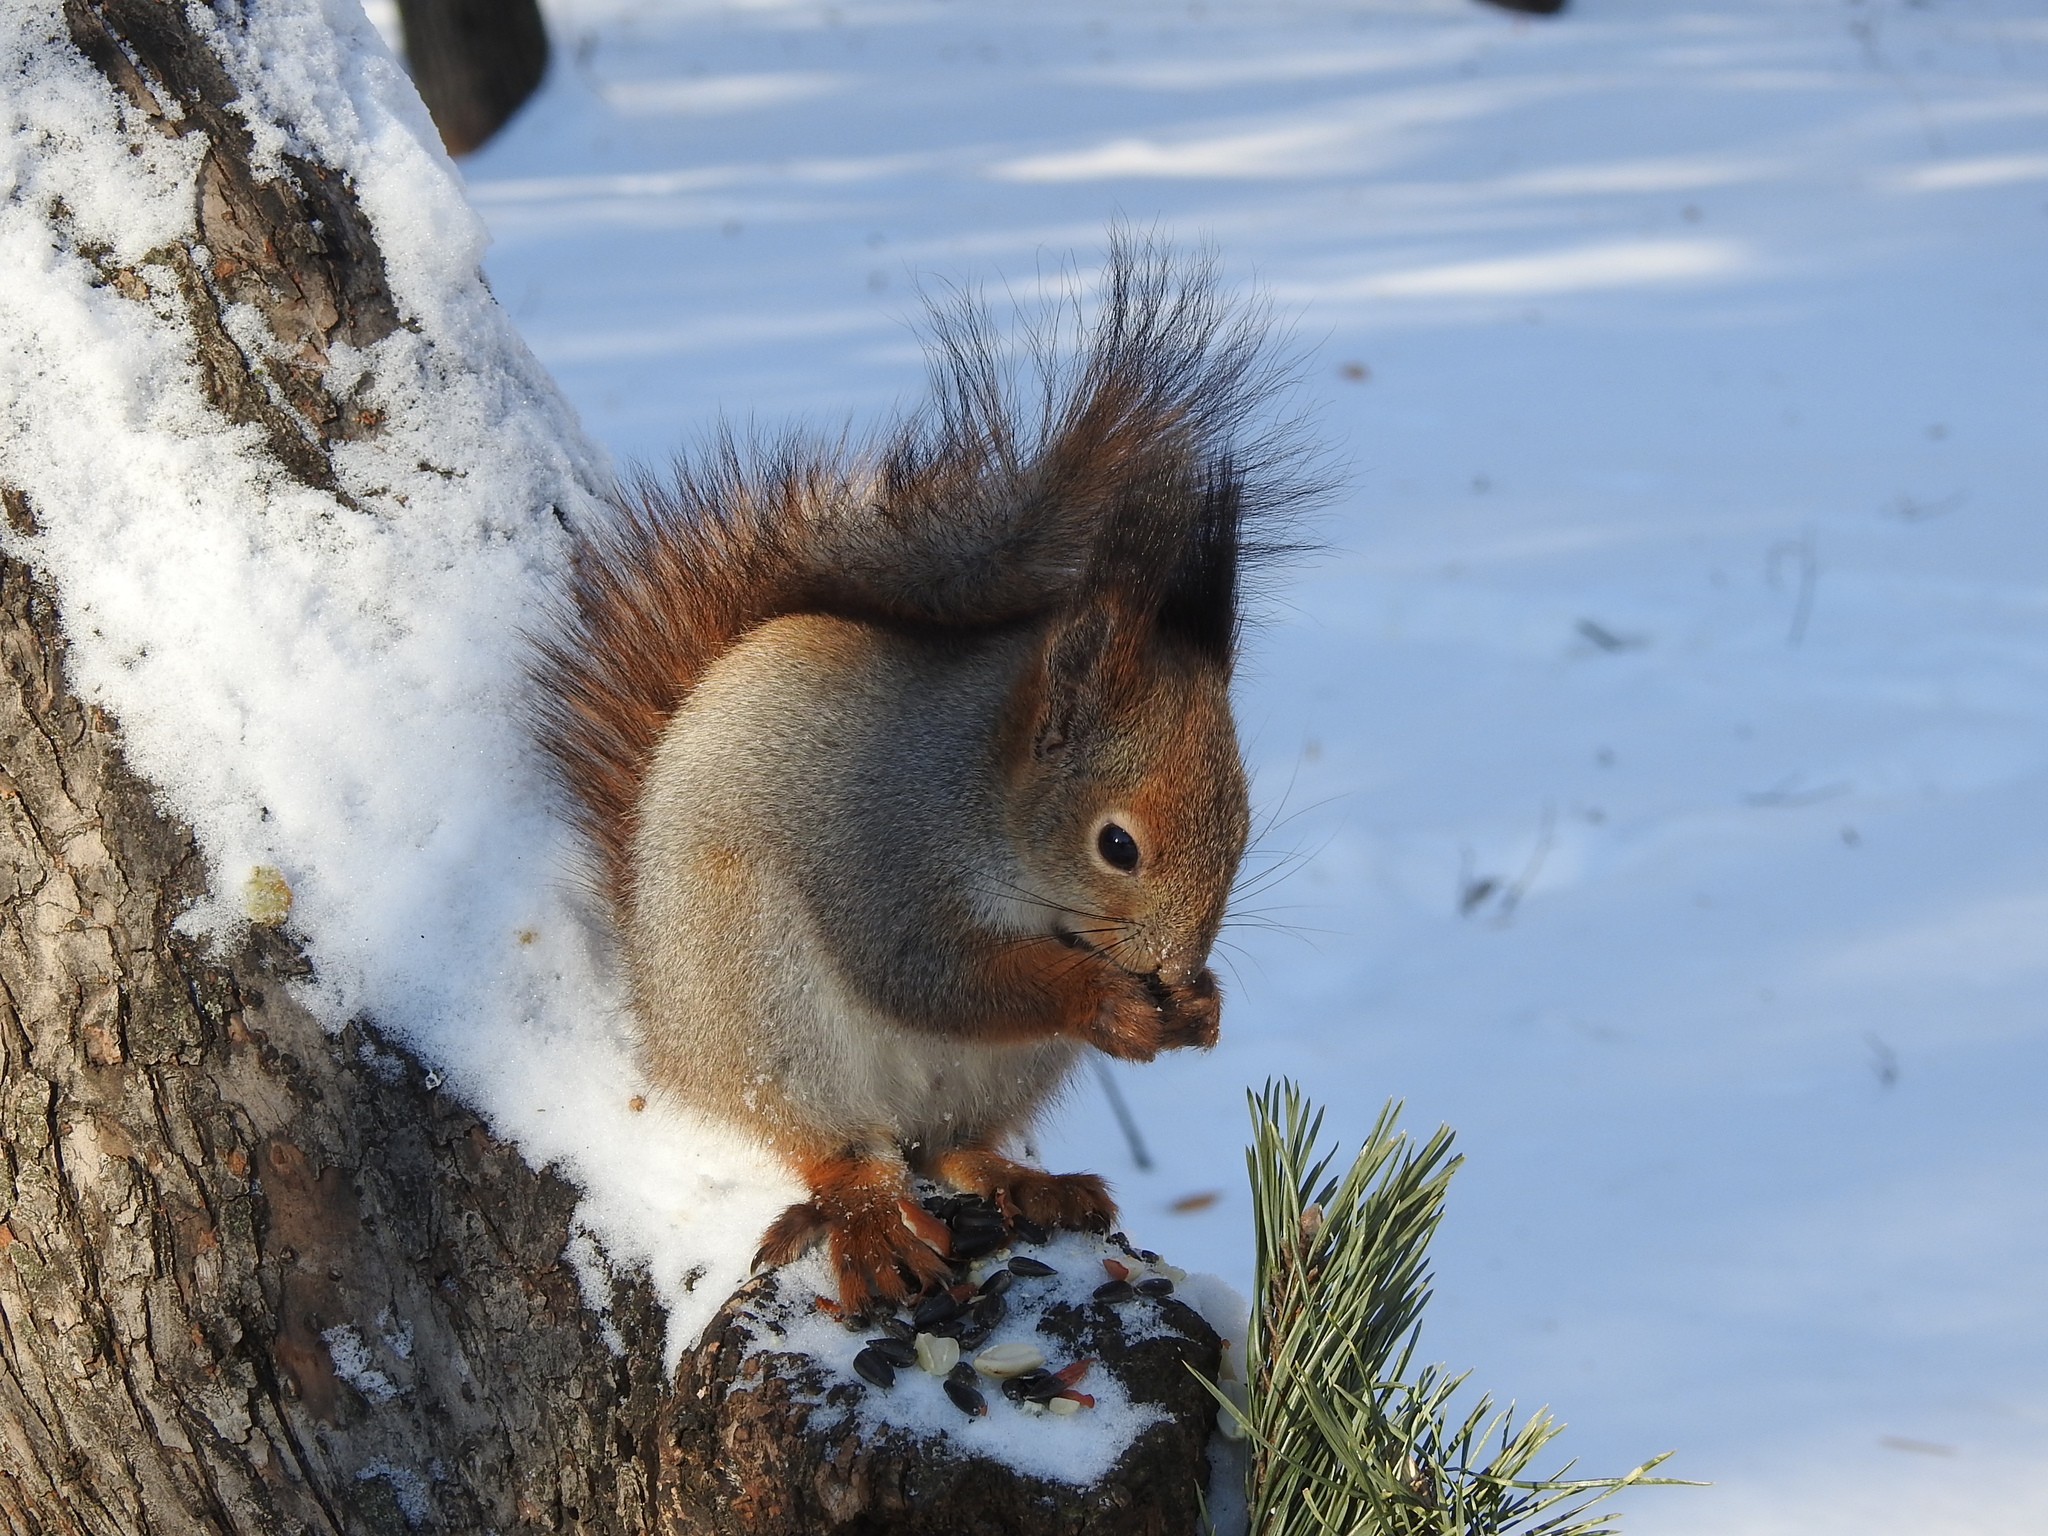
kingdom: Animalia
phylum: Chordata
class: Mammalia
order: Rodentia
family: Sciuridae
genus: Sciurus
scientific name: Sciurus vulgaris
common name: Eurasian red squirrel
